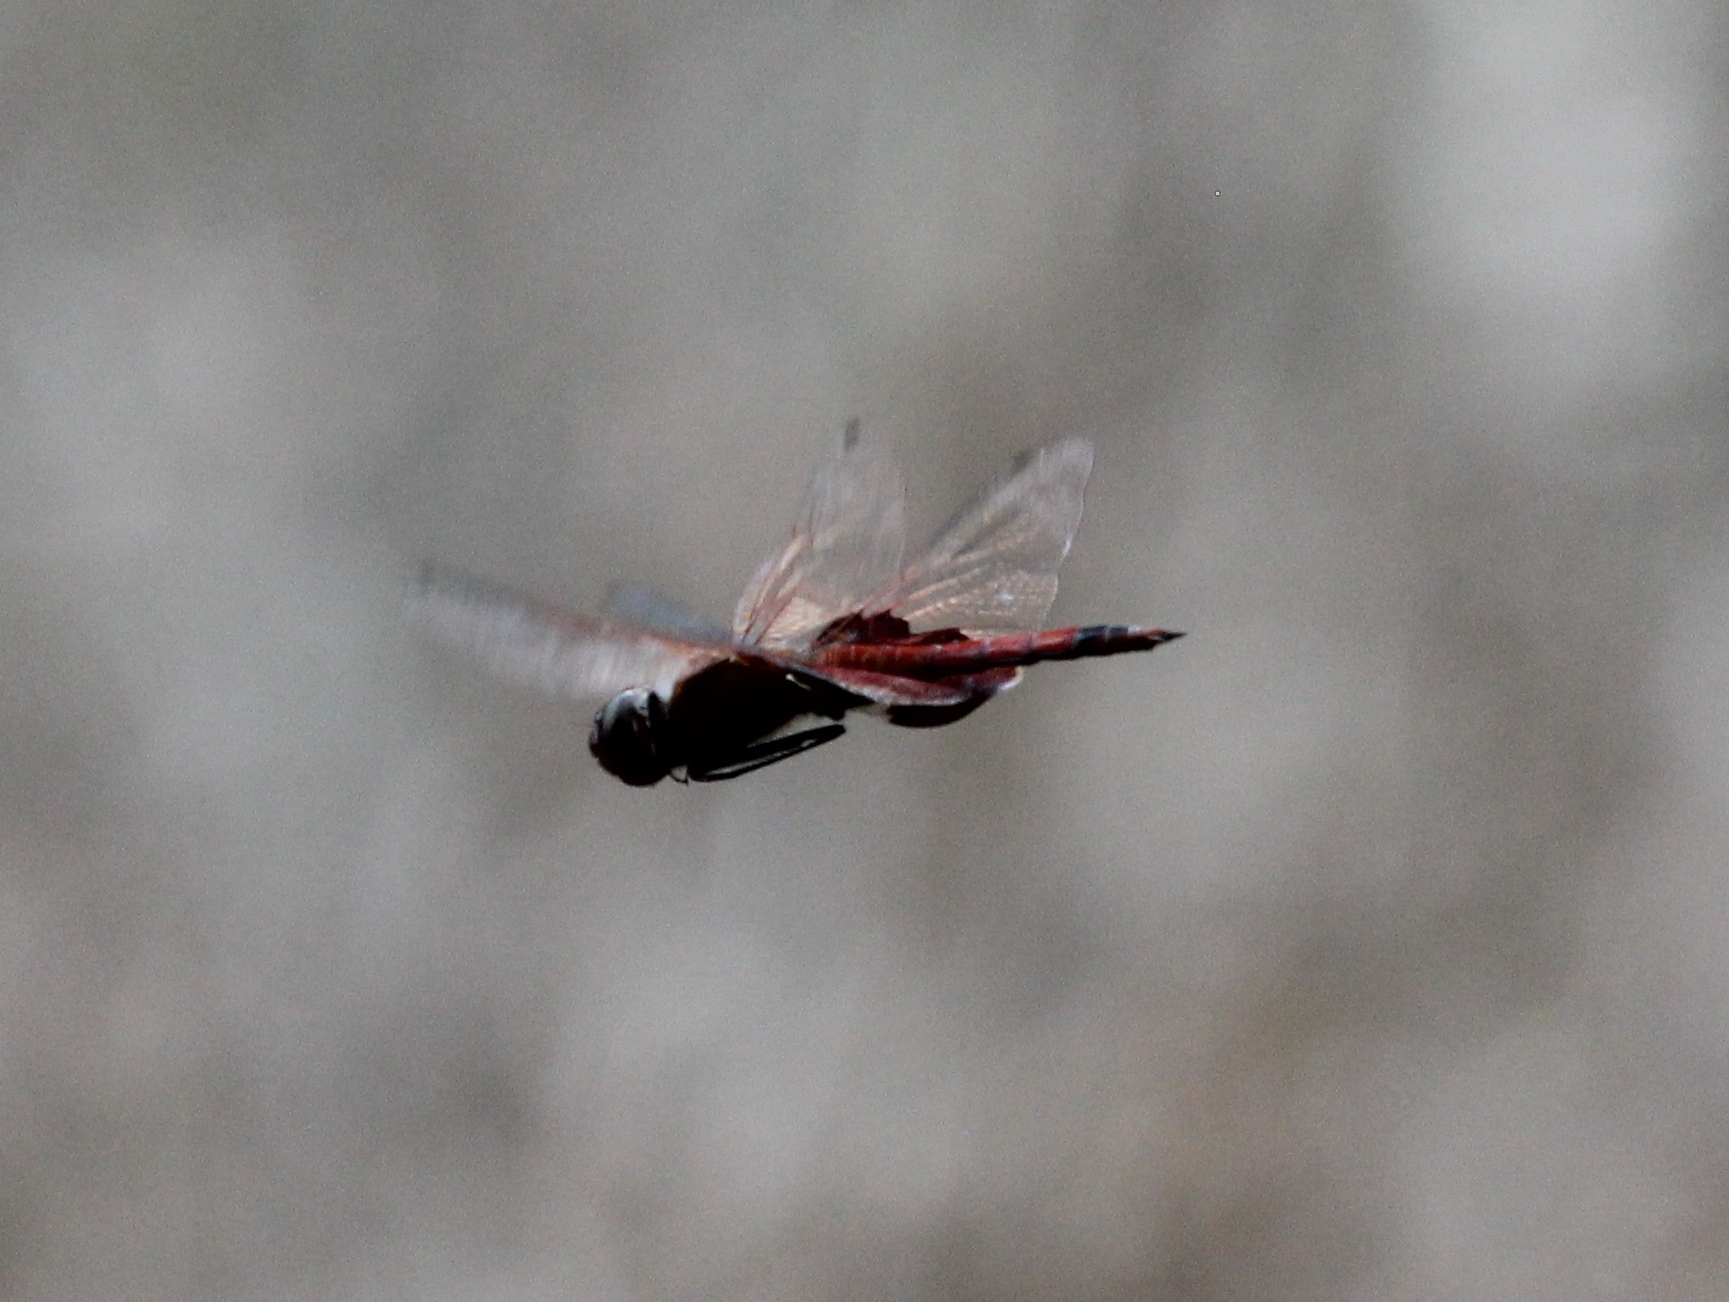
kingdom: Animalia
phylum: Arthropoda
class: Insecta
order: Odonata
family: Libellulidae
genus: Tramea
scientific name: Tramea carolina
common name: Carolina saddlebags
